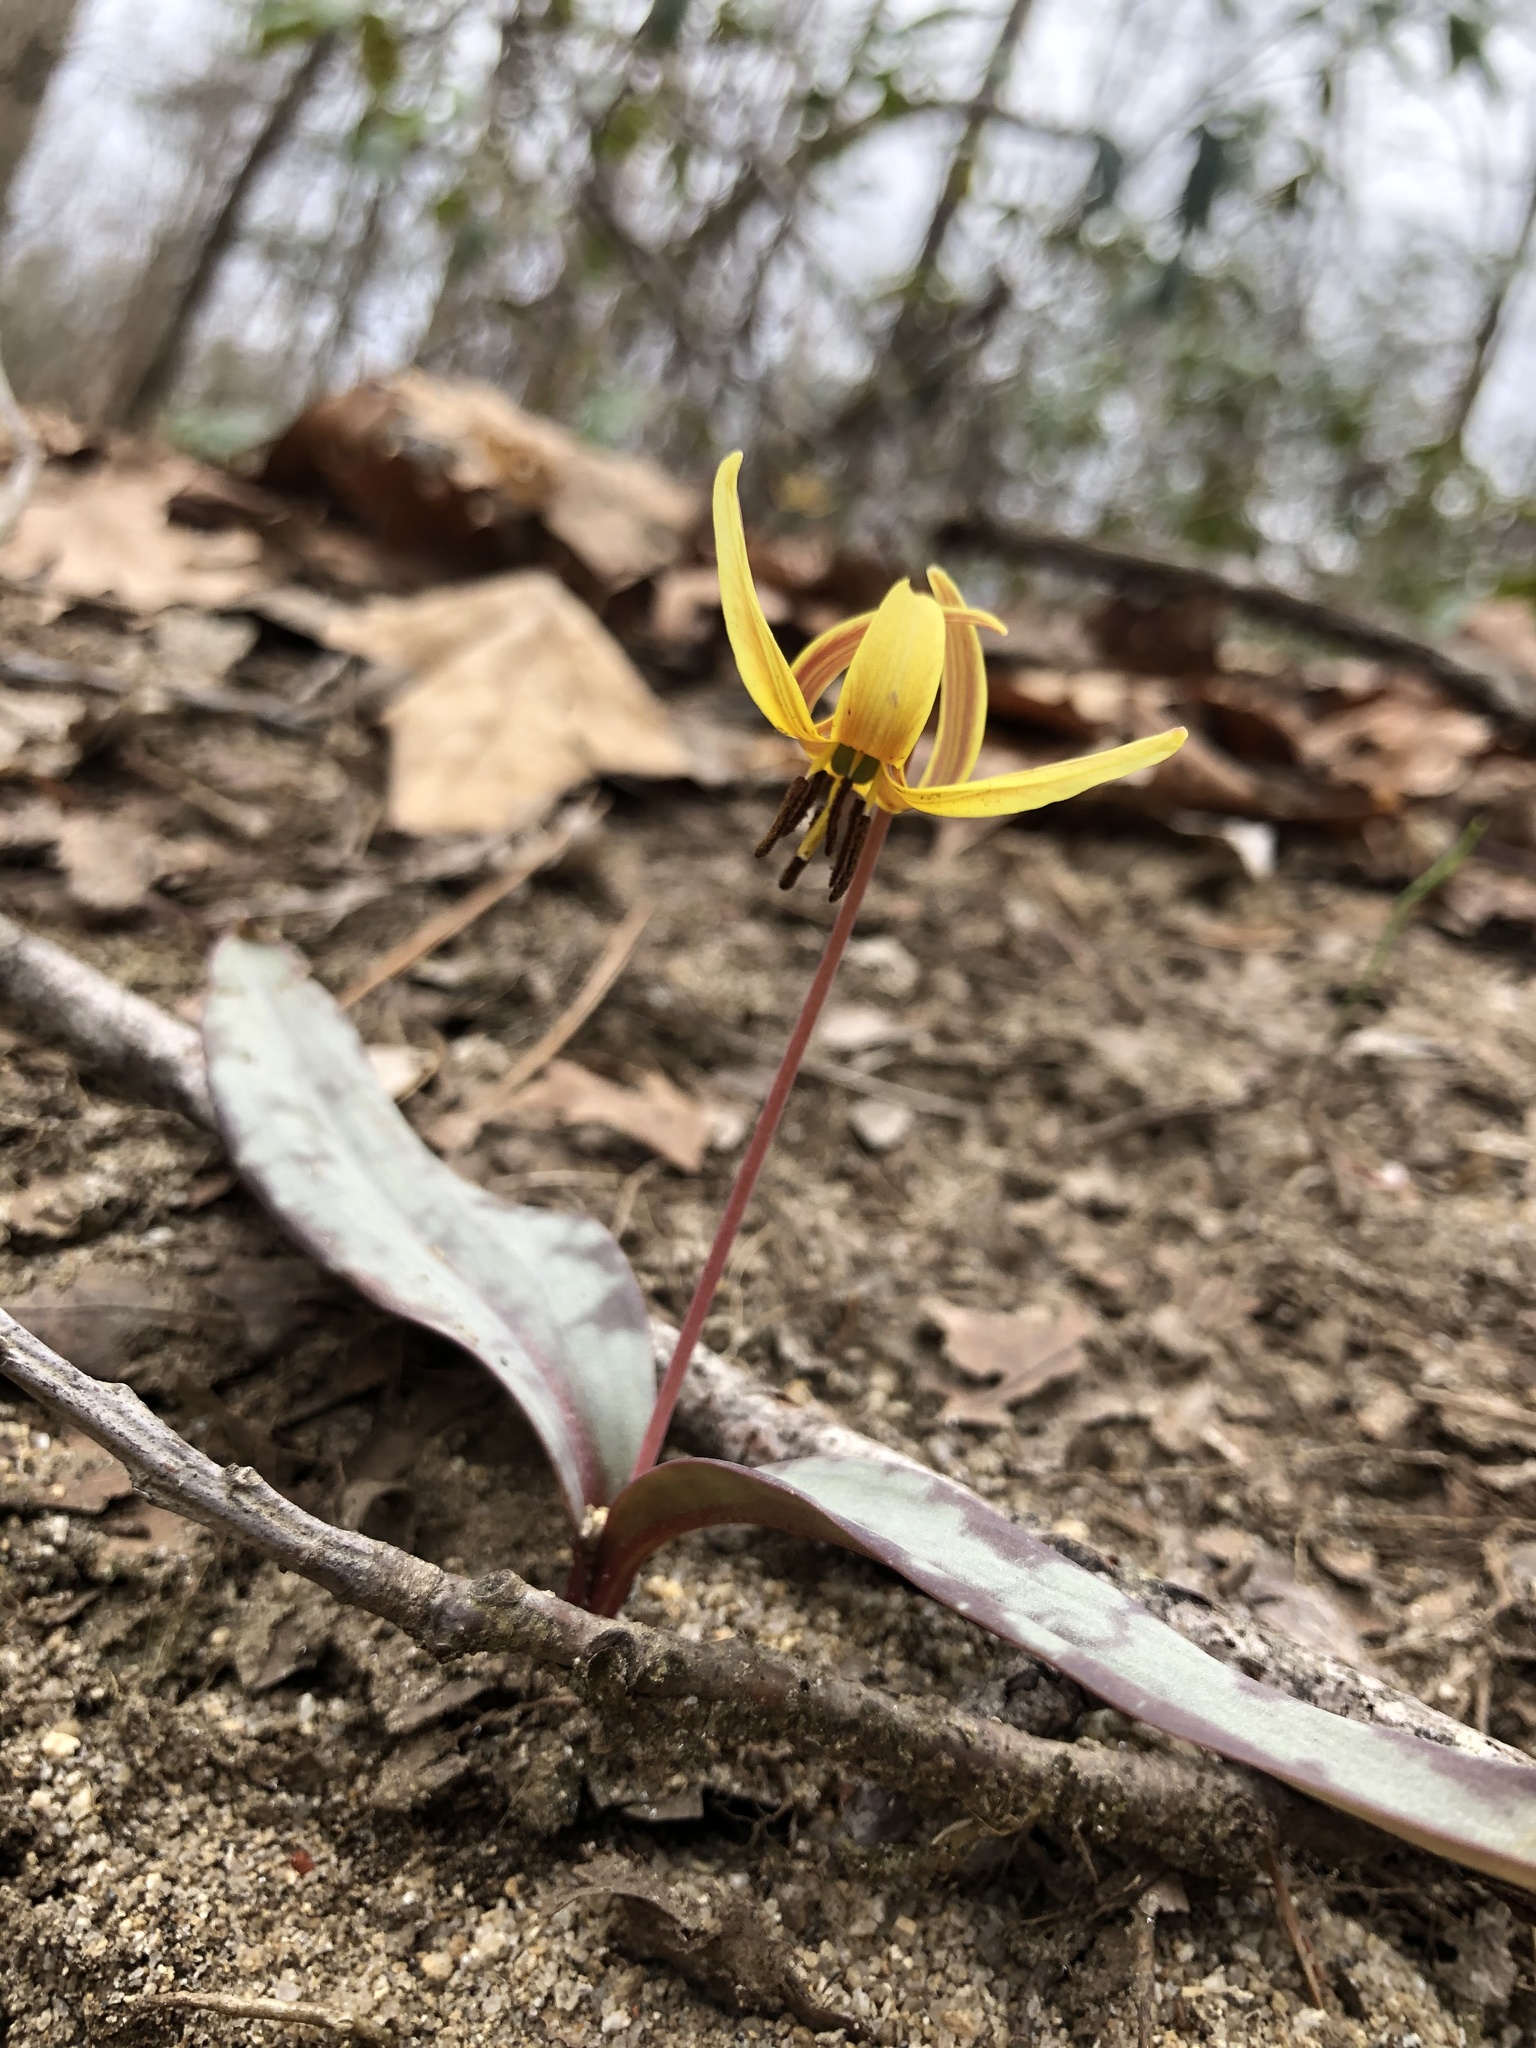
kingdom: Plantae
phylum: Tracheophyta
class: Liliopsida
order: Liliales
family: Liliaceae
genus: Erythronium
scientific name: Erythronium umbilicatum
